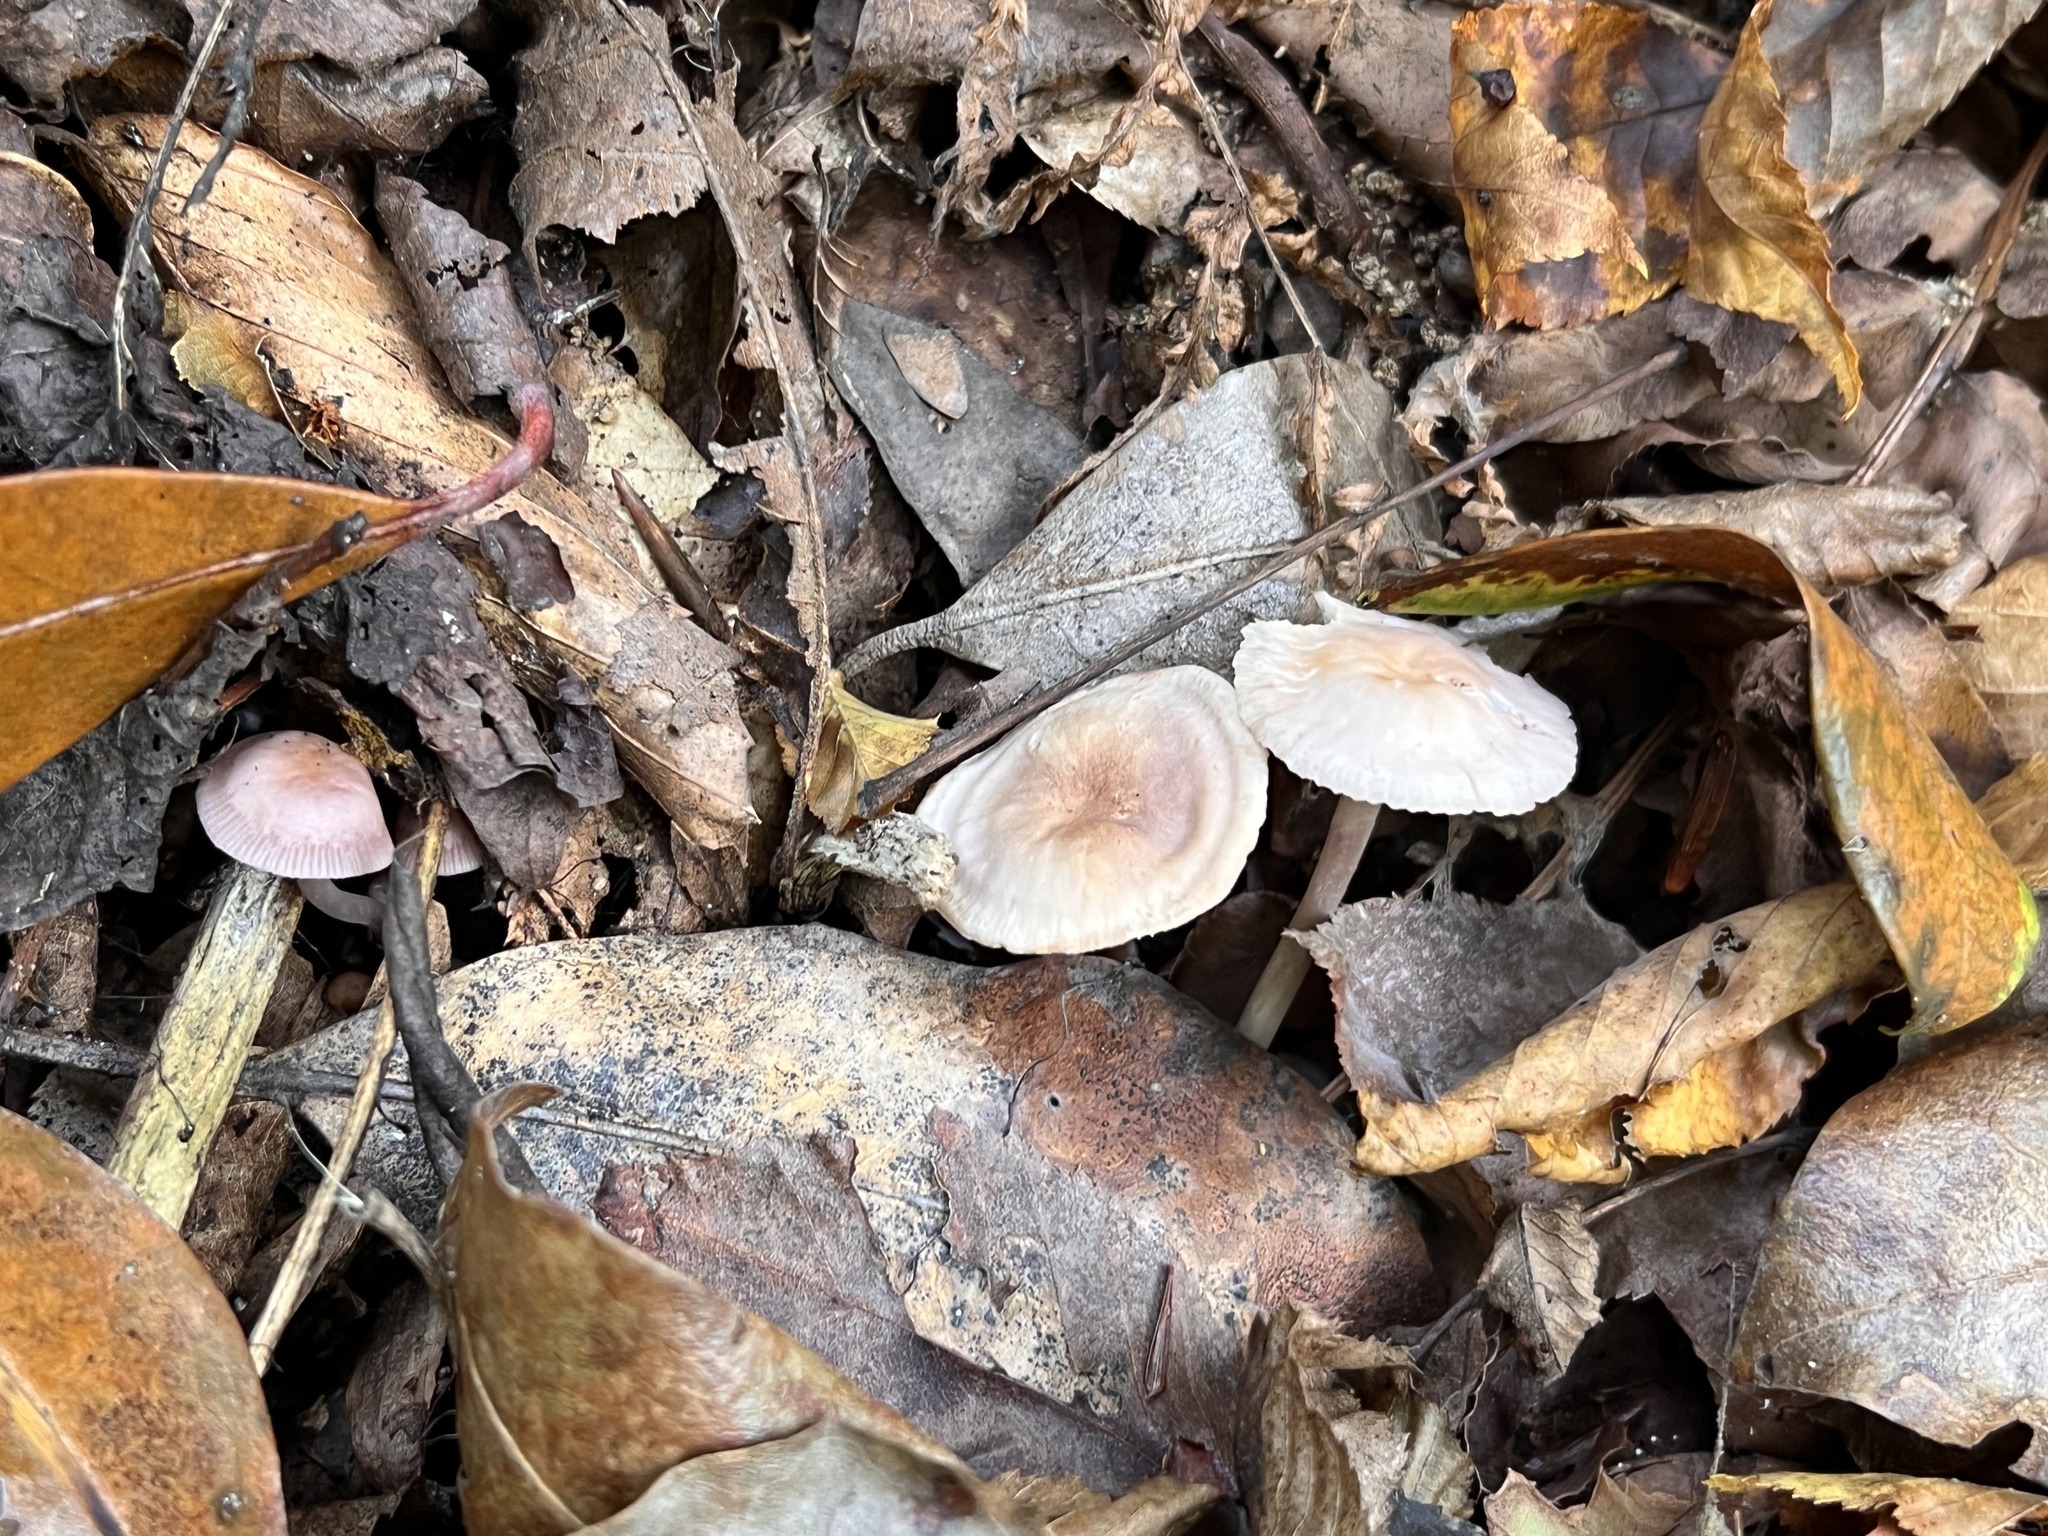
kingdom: Fungi
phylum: Basidiomycota
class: Agaricomycetes
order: Agaricales
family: Mycenaceae
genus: Mycena
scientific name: Mycena pura
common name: Lilac bonnet
